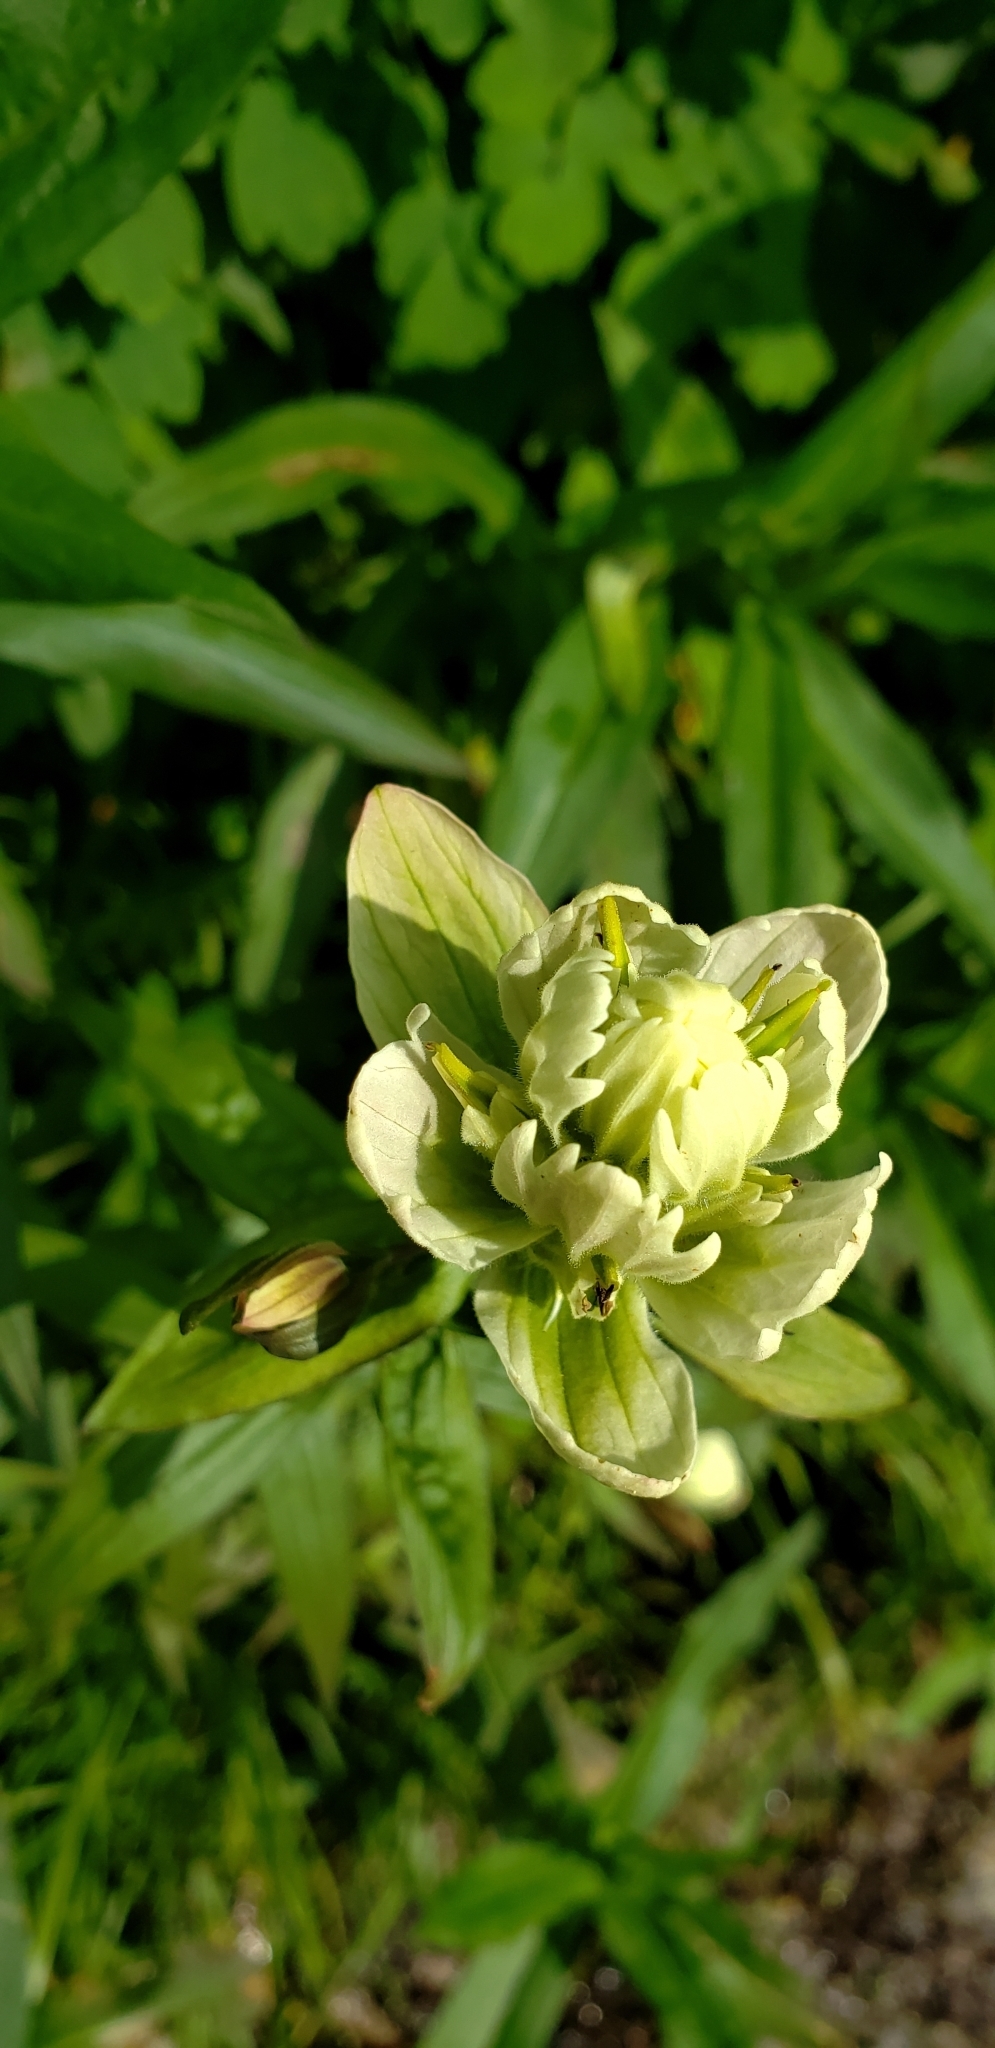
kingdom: Plantae
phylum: Tracheophyta
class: Magnoliopsida
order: Lamiales
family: Orobanchaceae
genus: Castilleja
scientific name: Castilleja septentrionalis
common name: Northeastern paintbrush
